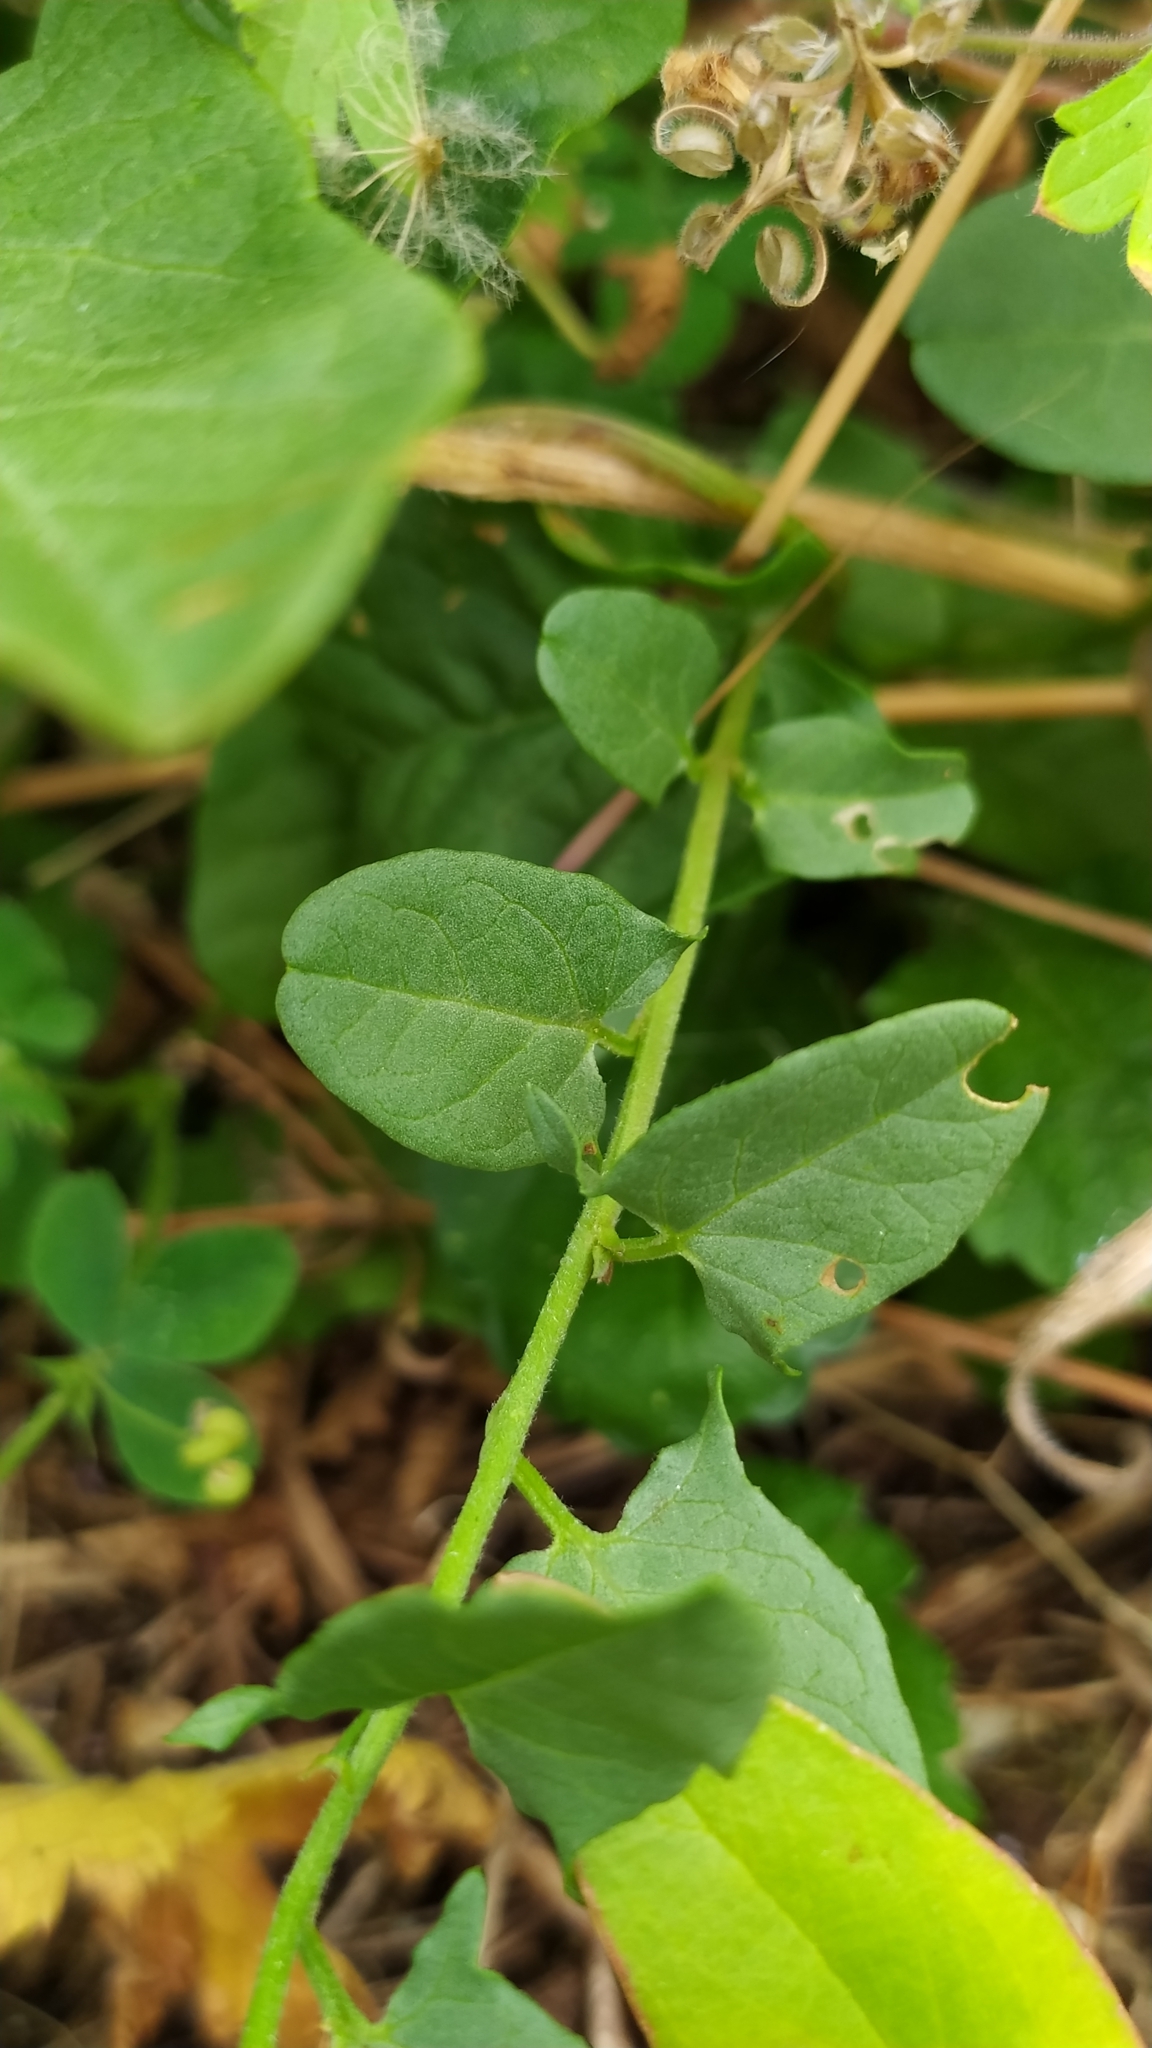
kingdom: Plantae
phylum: Tracheophyta
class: Magnoliopsida
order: Solanales
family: Convolvulaceae
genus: Convolvulus
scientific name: Convolvulus arvensis
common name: Field bindweed
